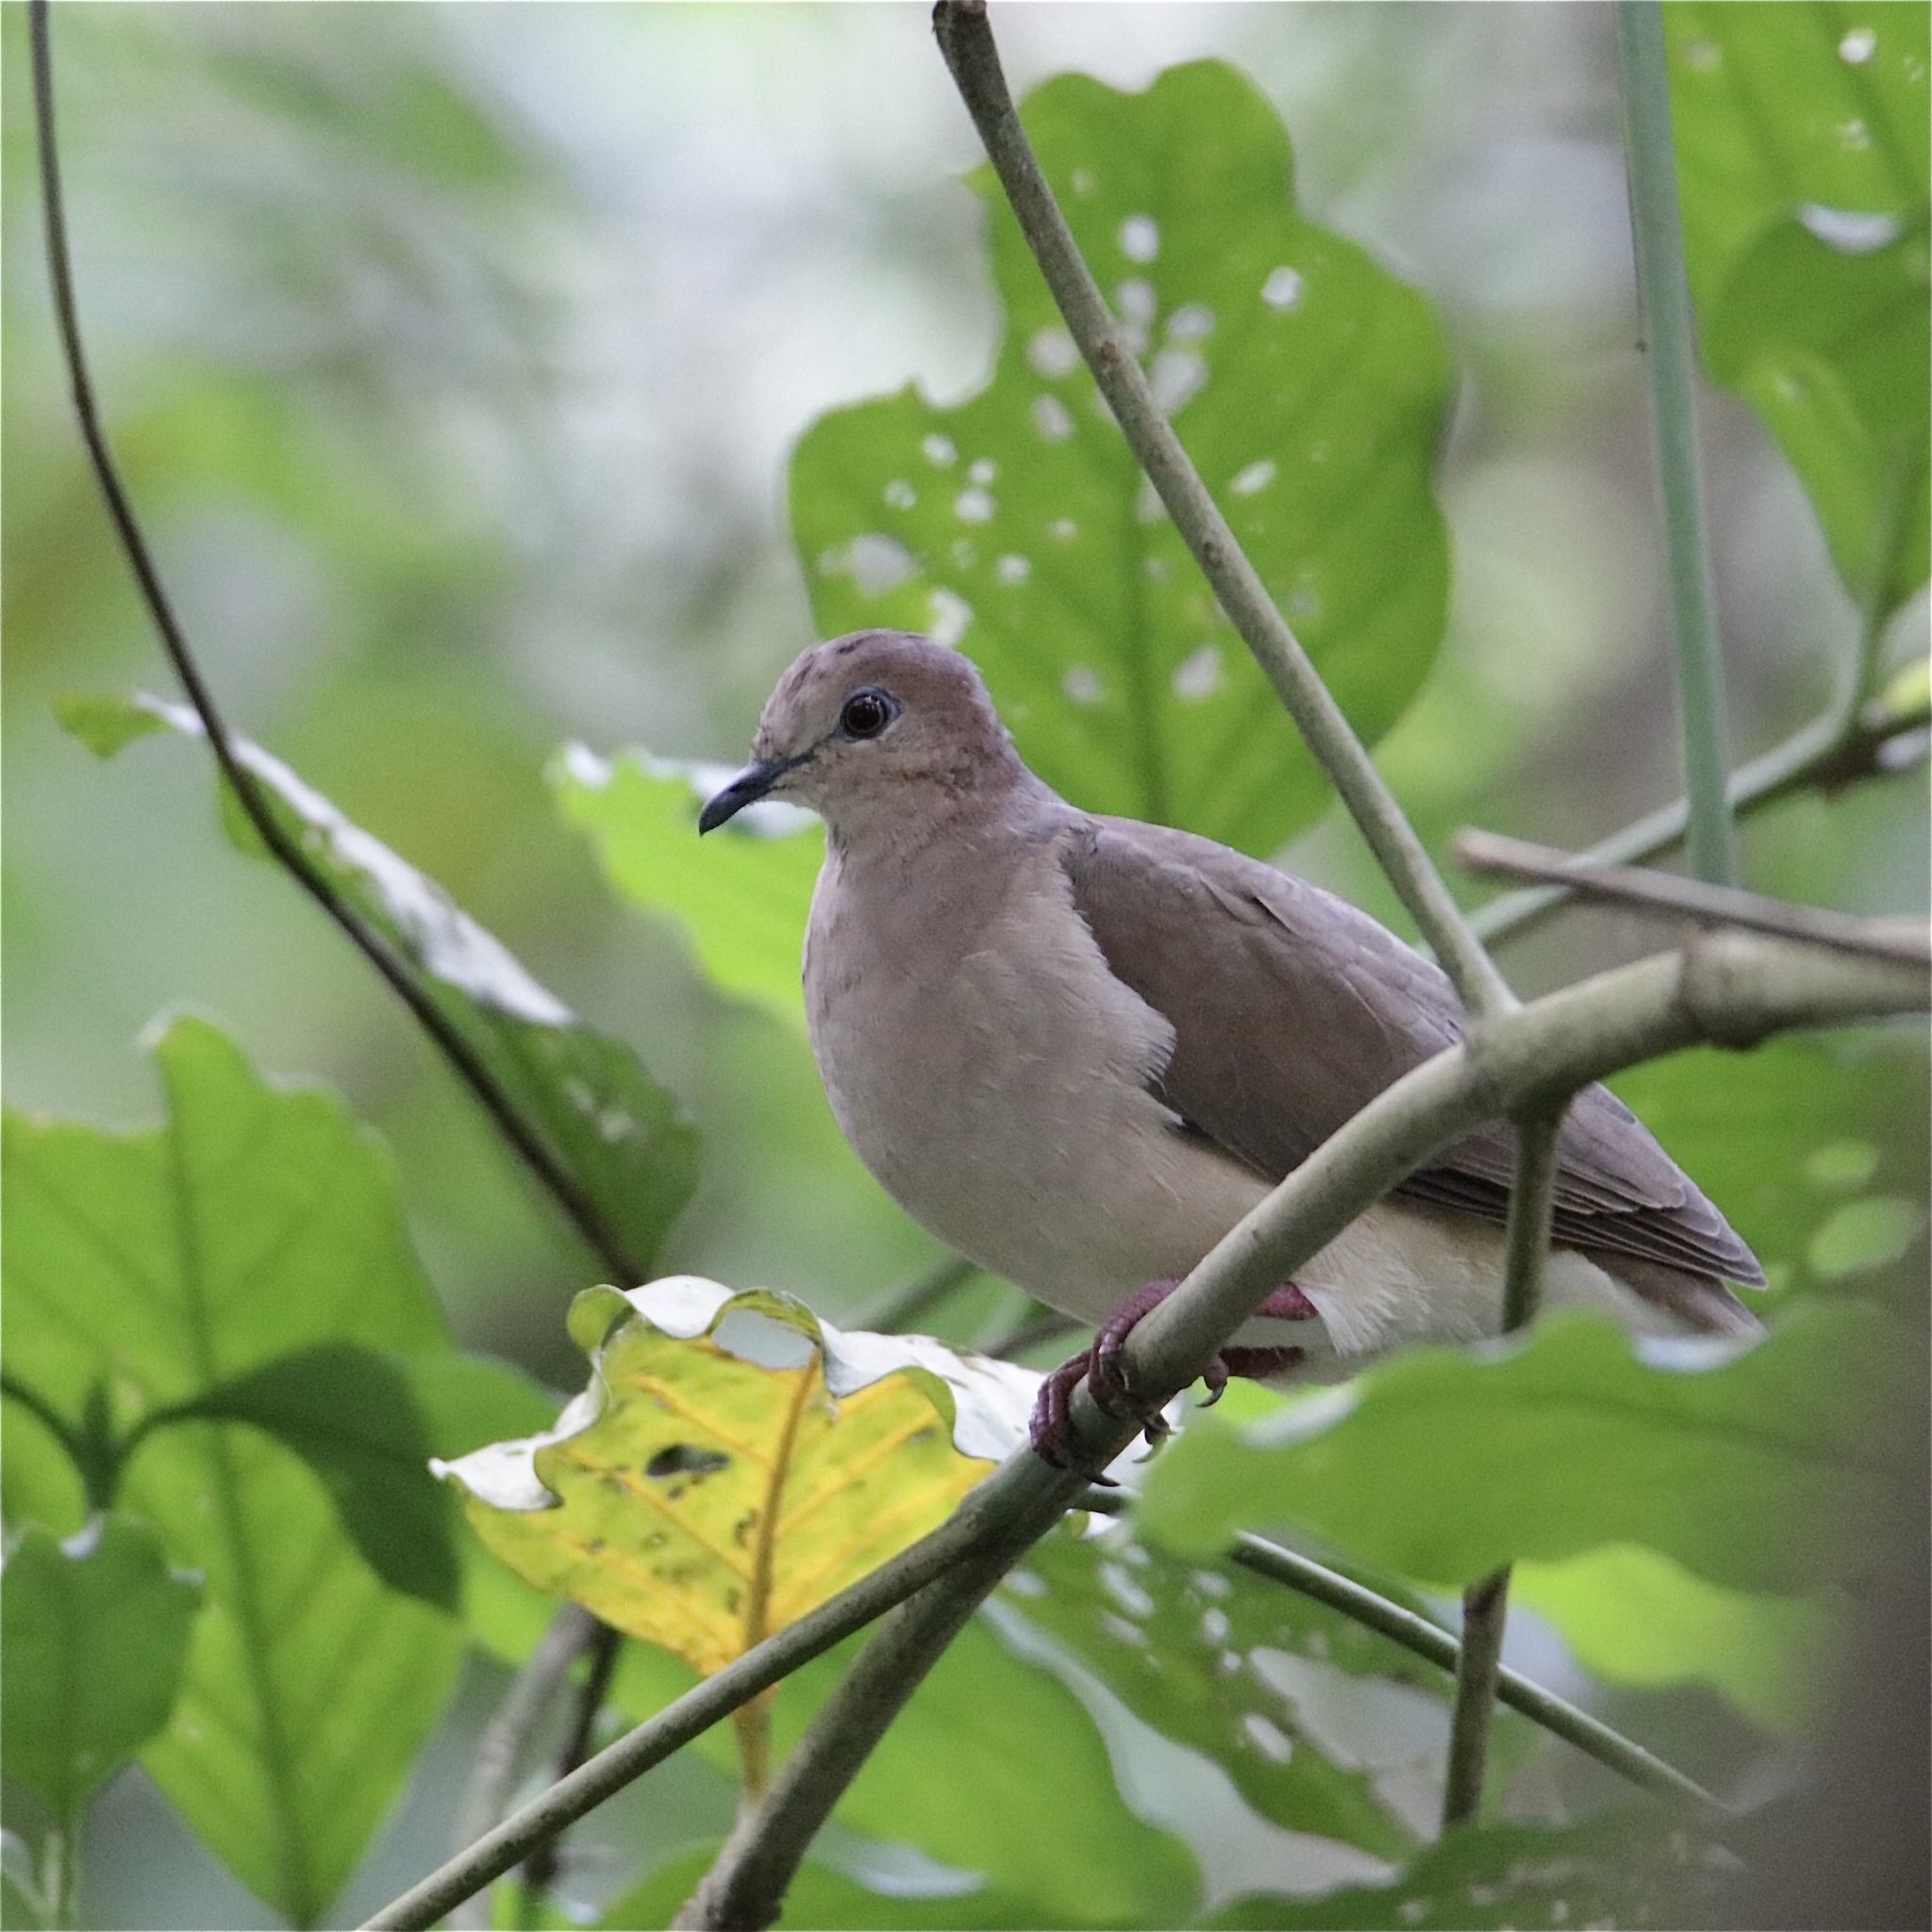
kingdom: Animalia
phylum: Chordata
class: Aves
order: Columbiformes
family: Columbidae
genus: Leptotila
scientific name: Leptotila verreauxi
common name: White-tipped dove
